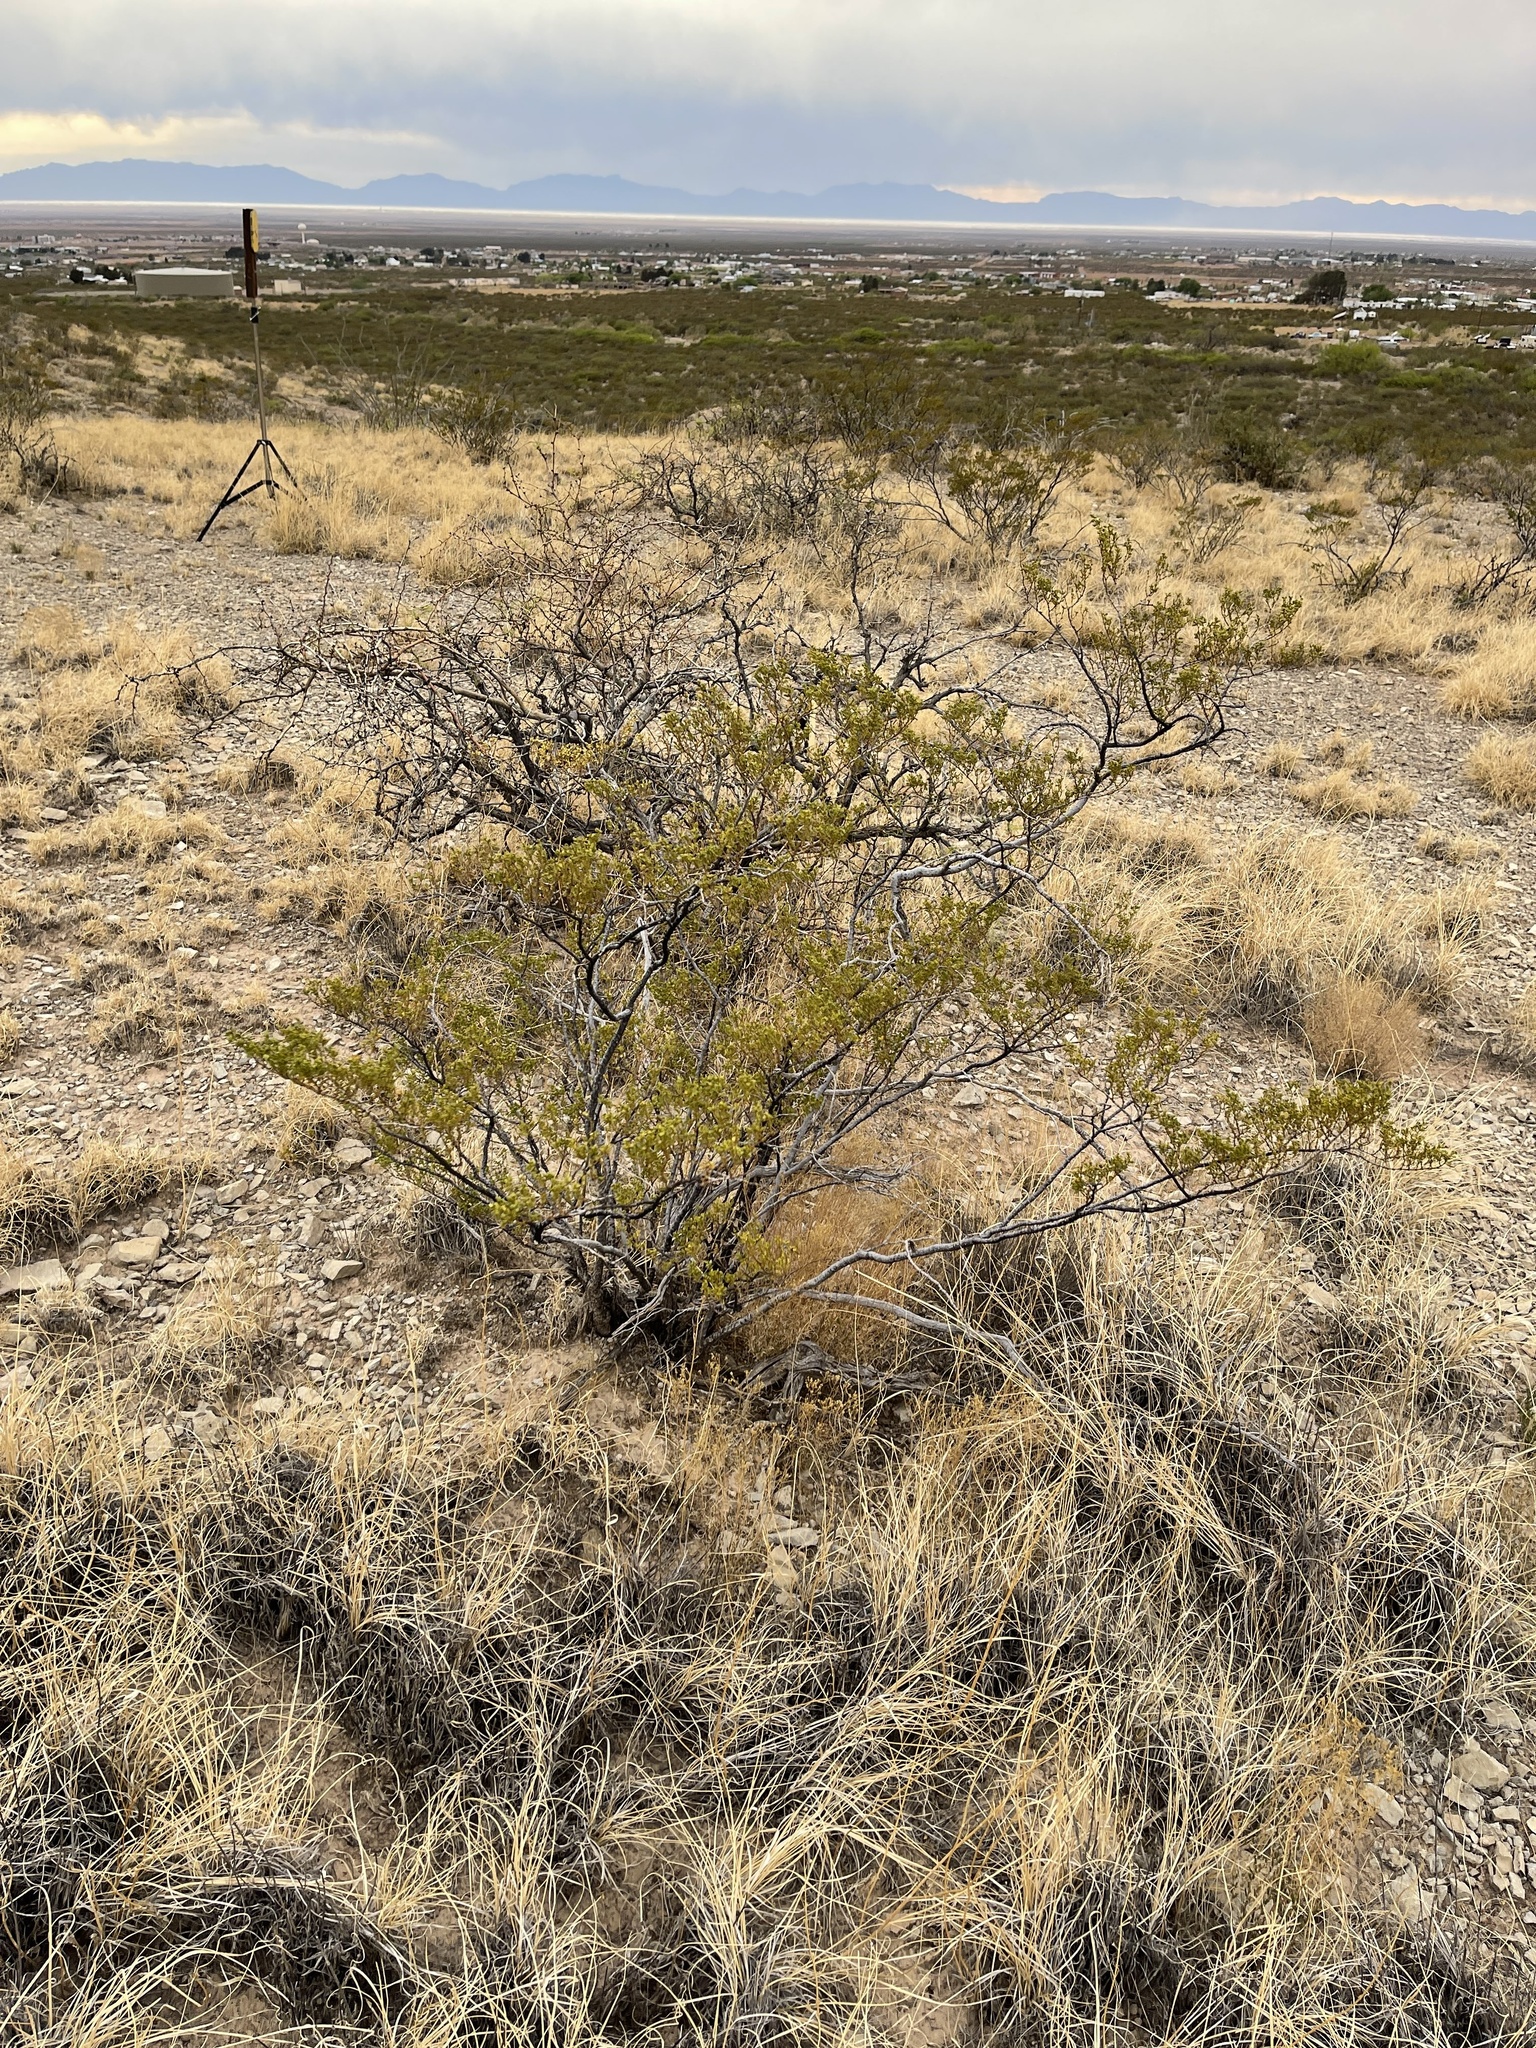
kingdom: Plantae
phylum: Tracheophyta
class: Magnoliopsida
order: Zygophyllales
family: Zygophyllaceae
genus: Larrea
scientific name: Larrea tridentata
